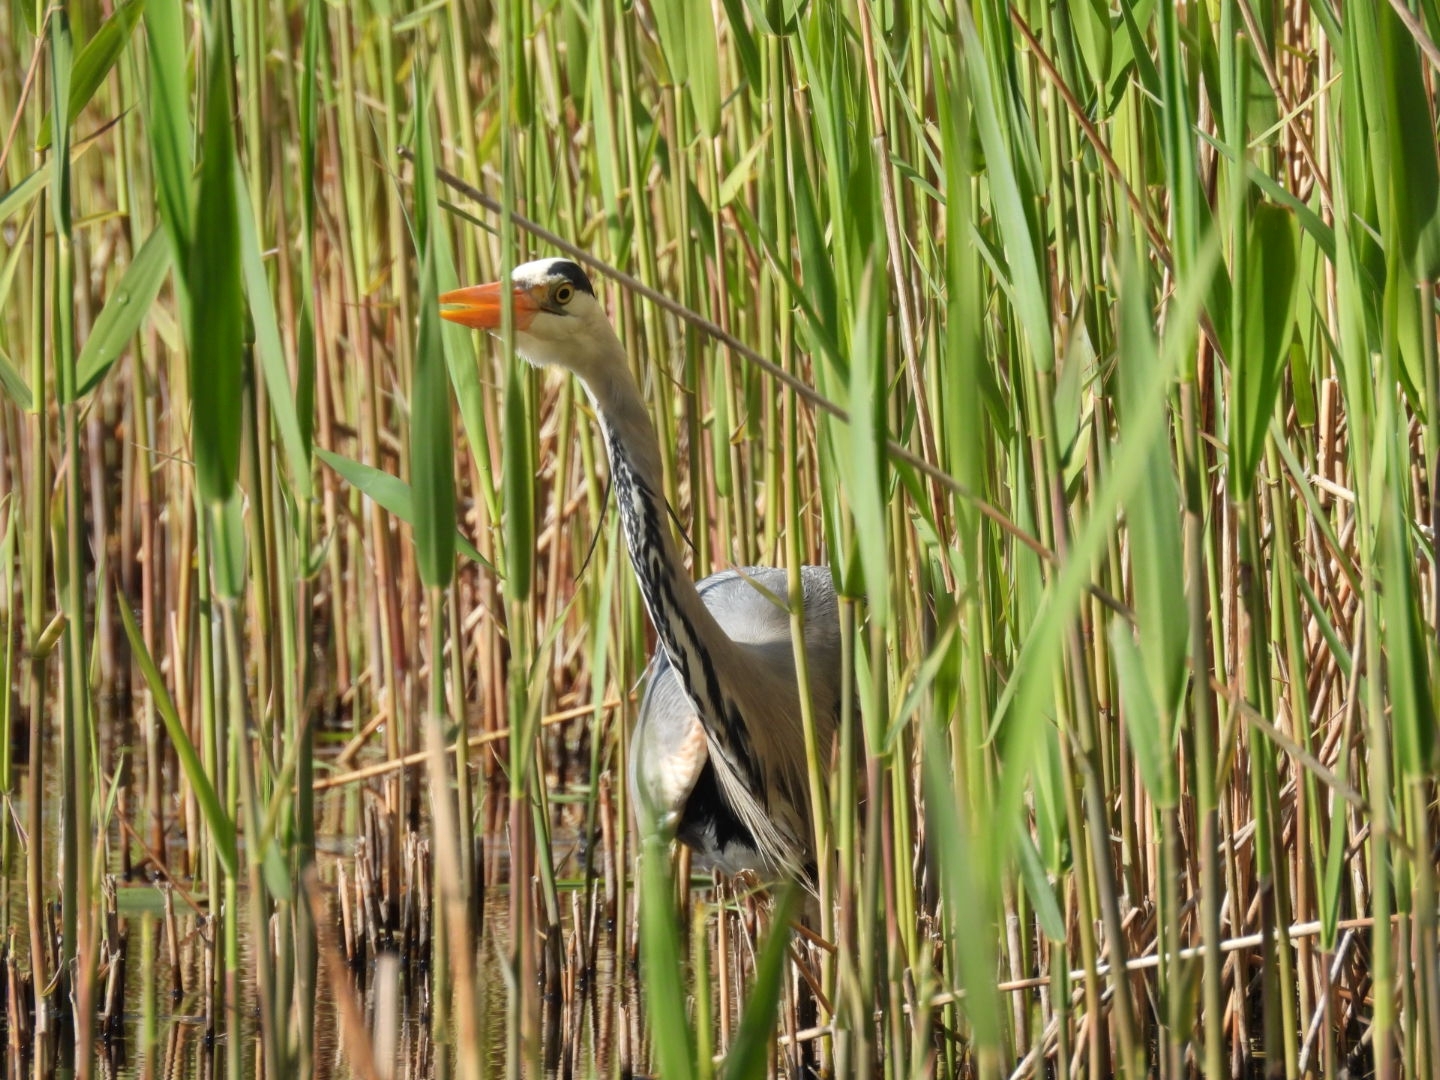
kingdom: Animalia
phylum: Chordata
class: Aves
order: Pelecaniformes
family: Ardeidae
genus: Ardea
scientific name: Ardea cinerea
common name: Grey heron
